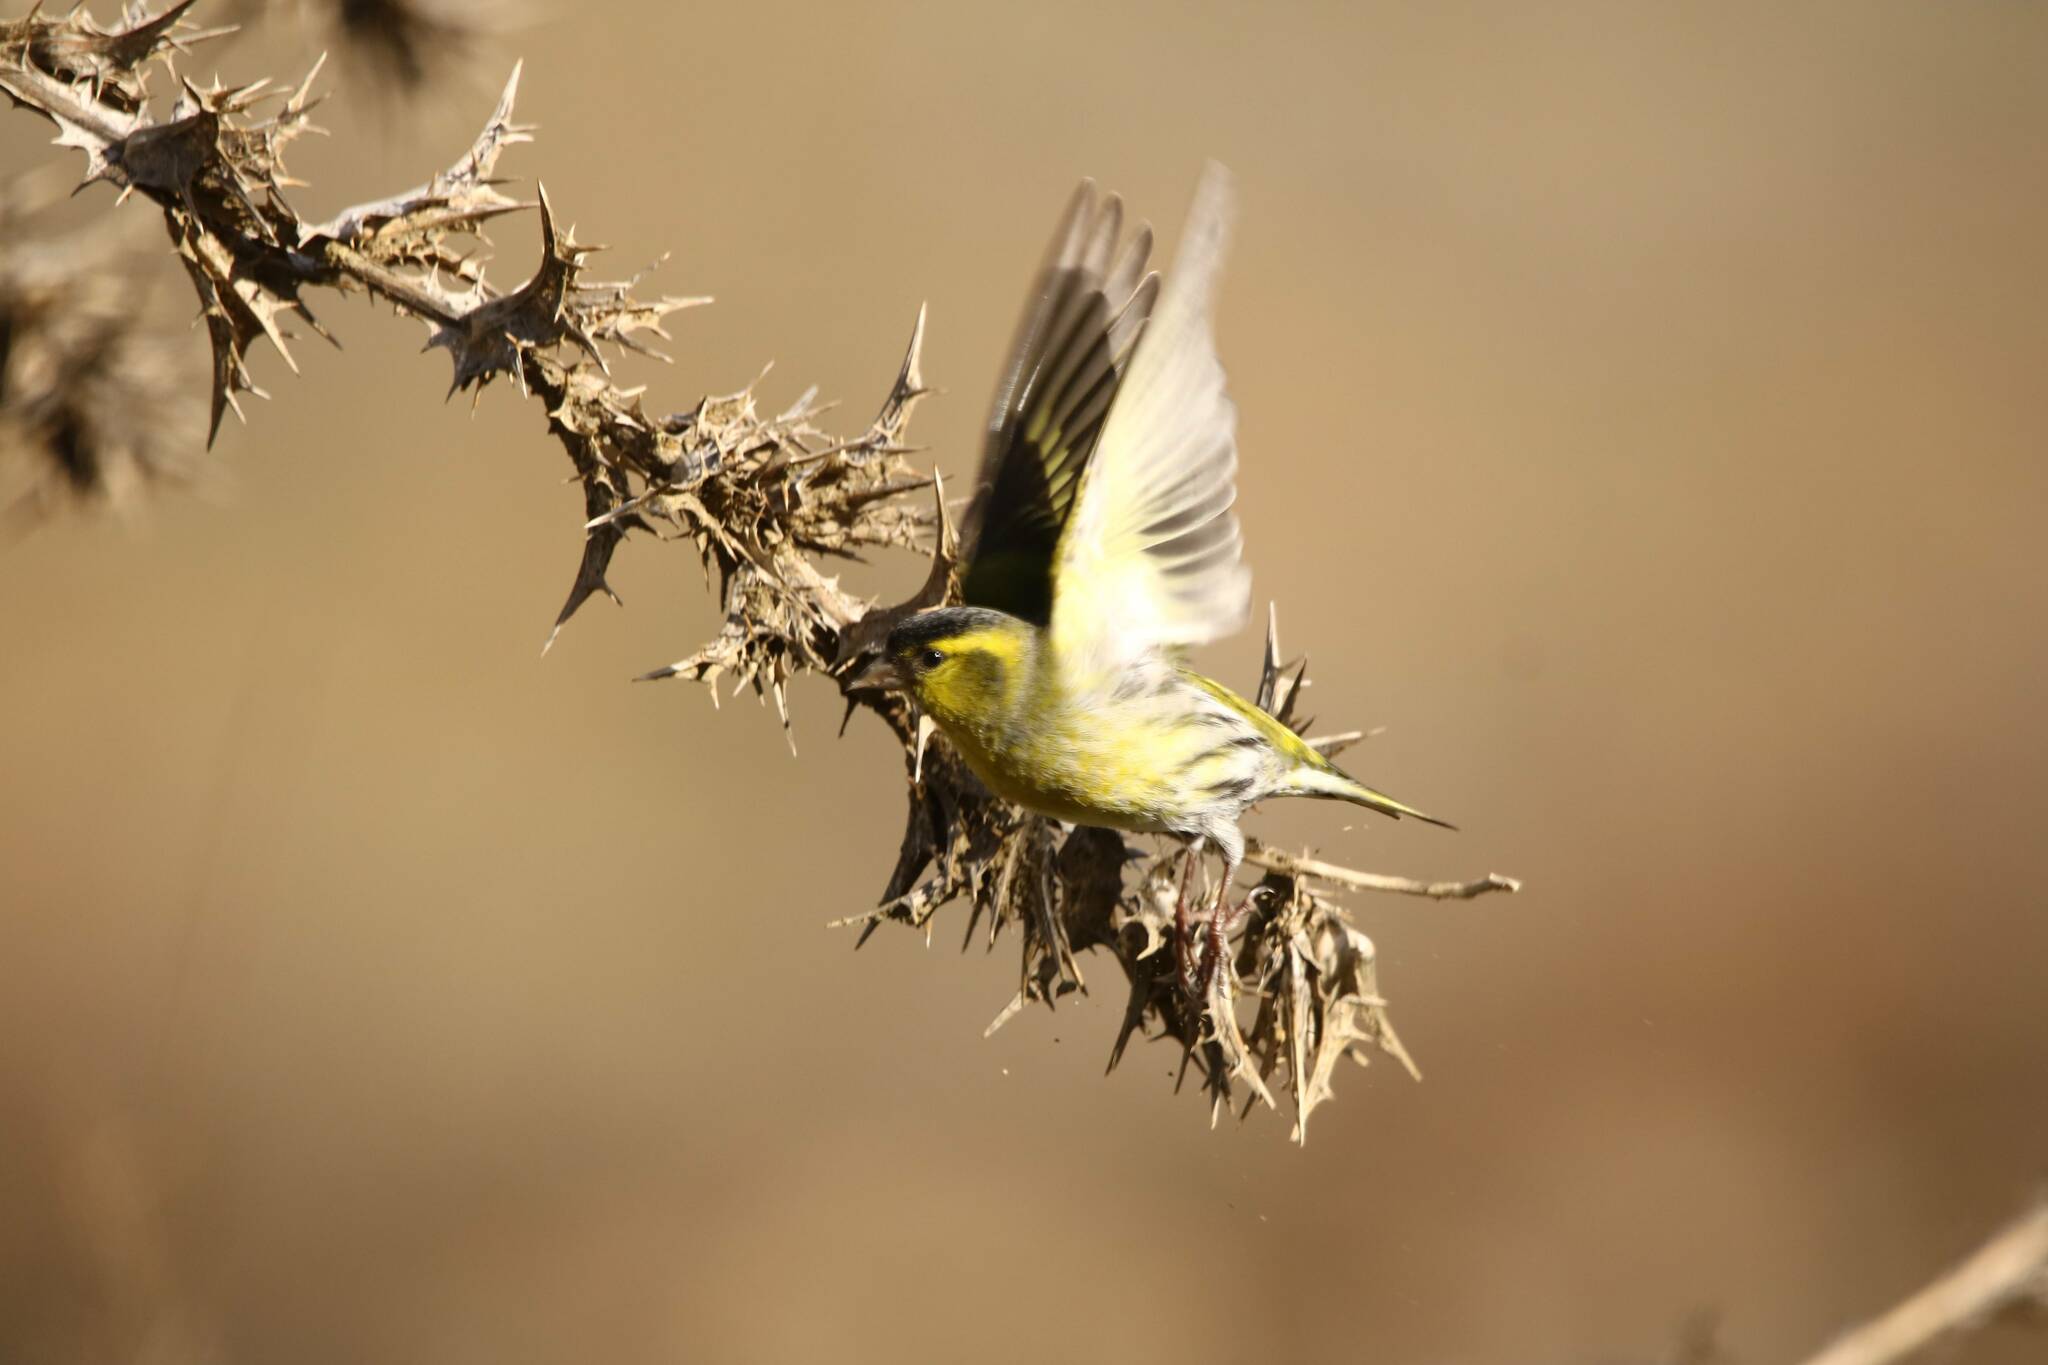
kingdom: Animalia
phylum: Chordata
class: Aves
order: Passeriformes
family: Fringillidae
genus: Spinus
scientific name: Spinus spinus
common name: Eurasian siskin
